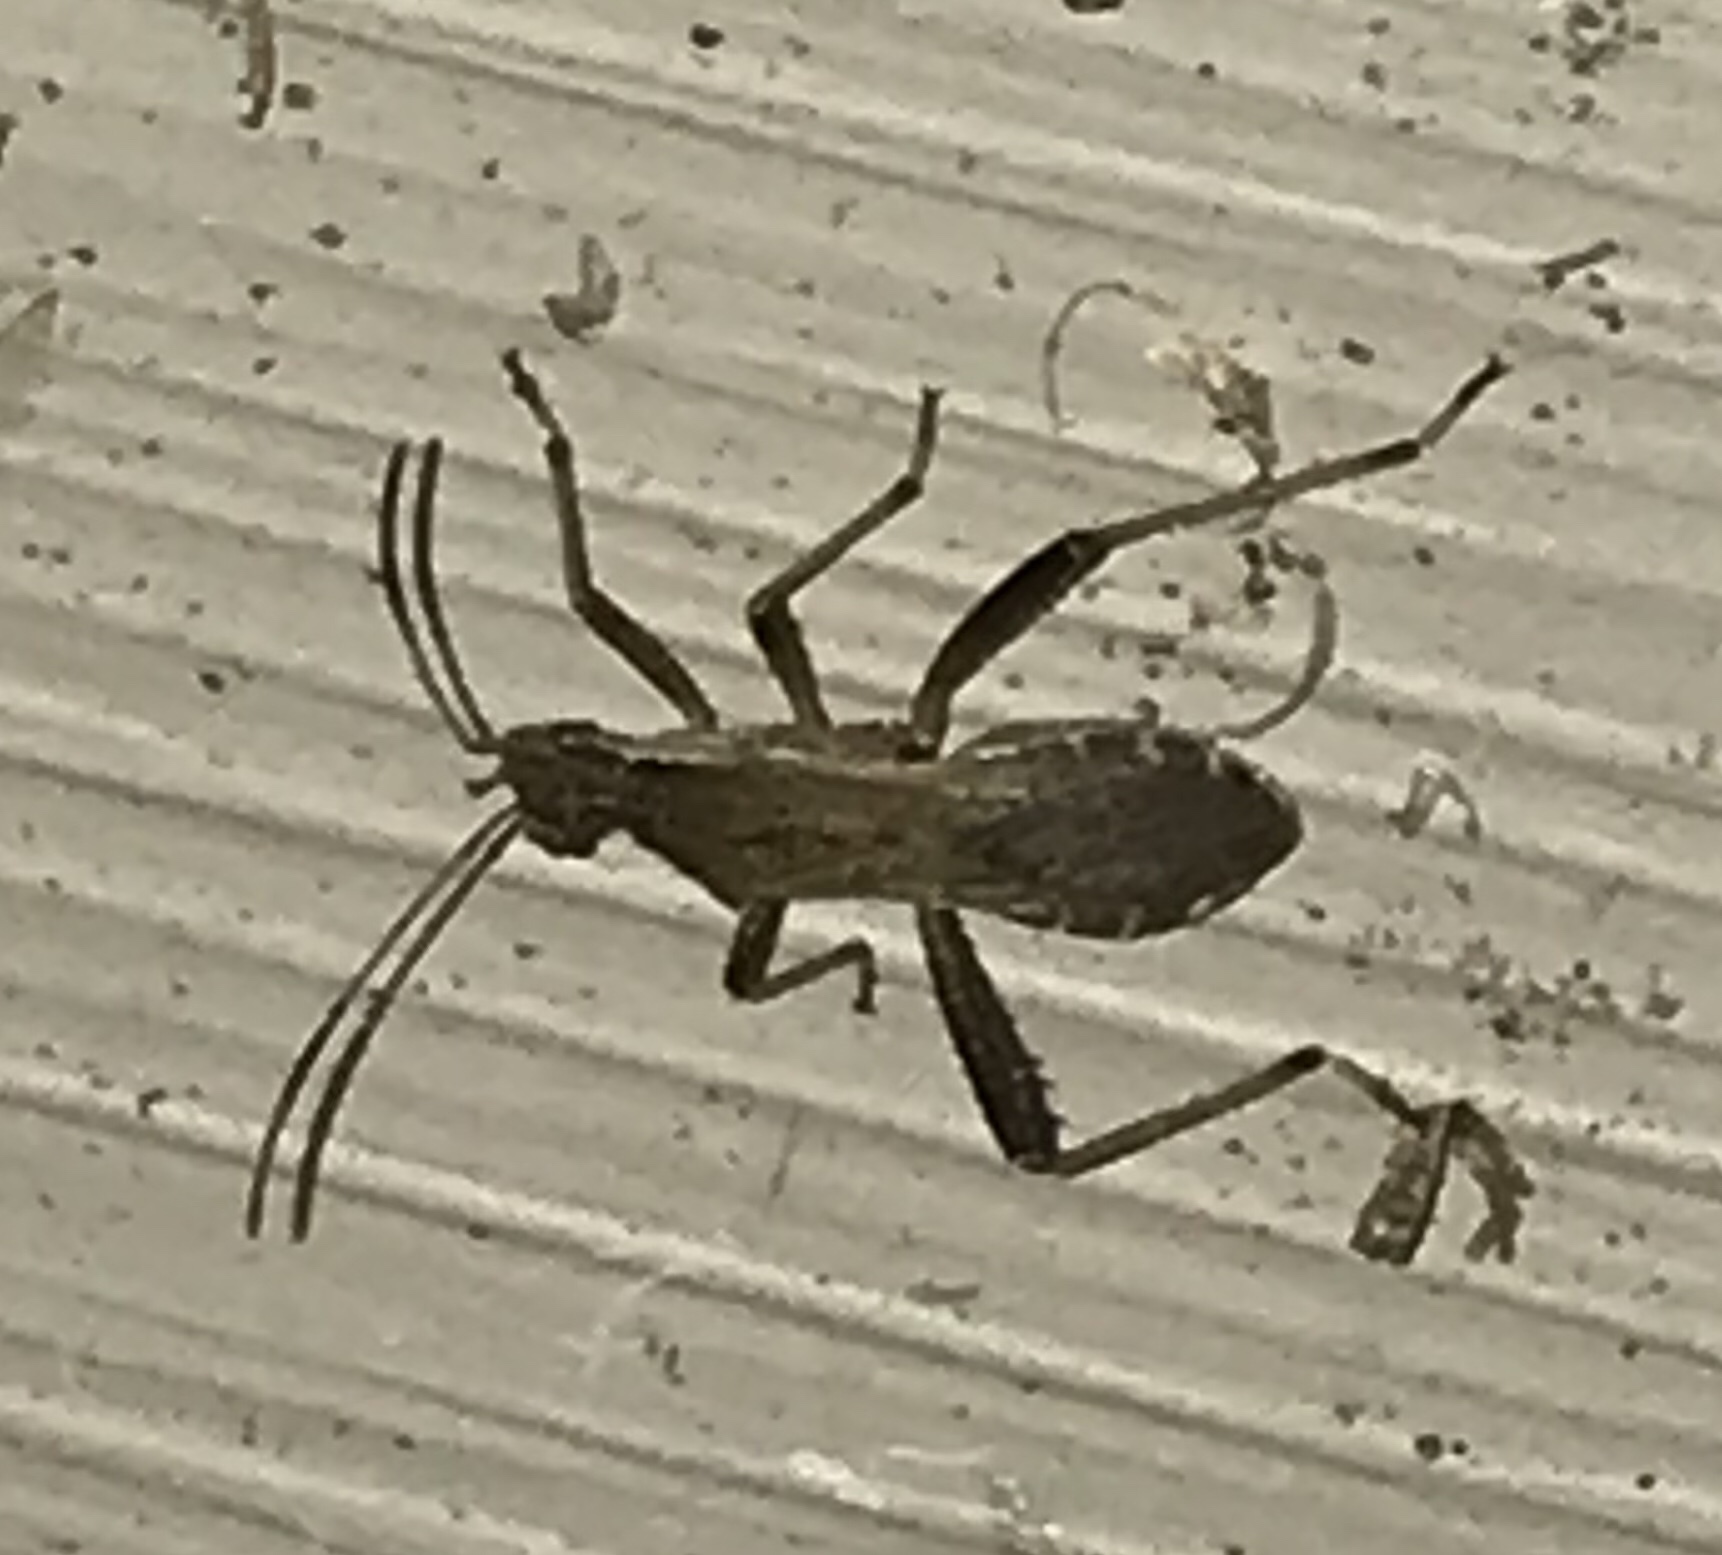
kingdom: Animalia
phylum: Arthropoda
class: Insecta
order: Hemiptera
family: Alydidae
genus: Alydus
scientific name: Alydus pilosulus
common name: Broad-headed bug
